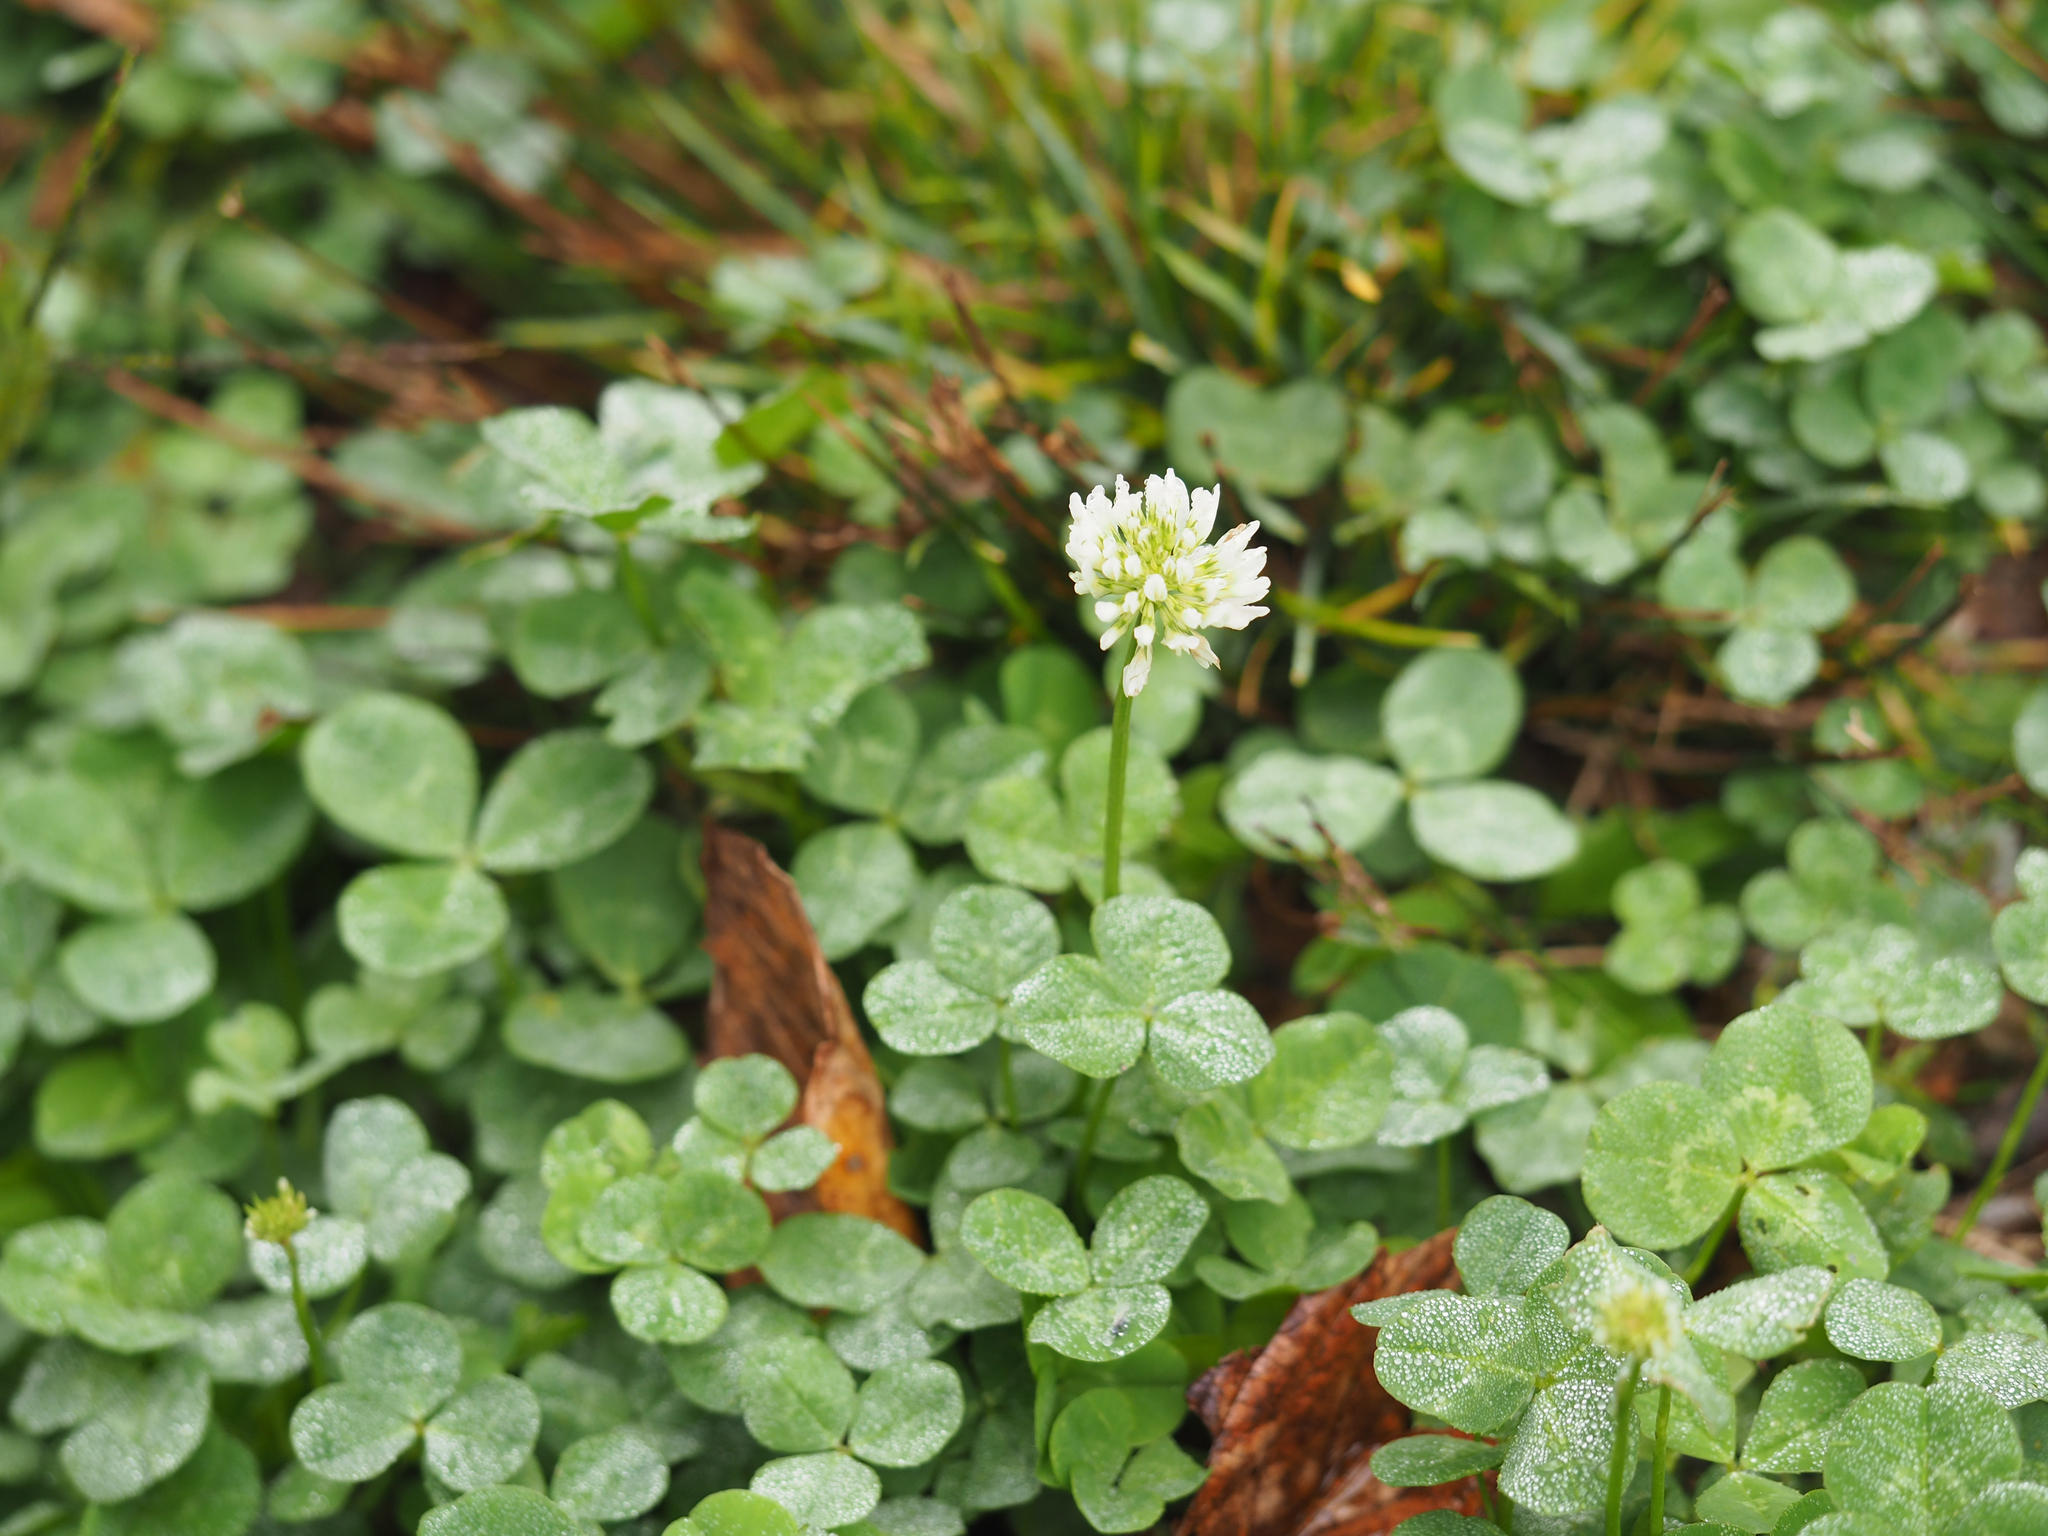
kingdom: Plantae
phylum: Tracheophyta
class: Magnoliopsida
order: Fabales
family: Fabaceae
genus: Trifolium
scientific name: Trifolium repens
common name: White clover
